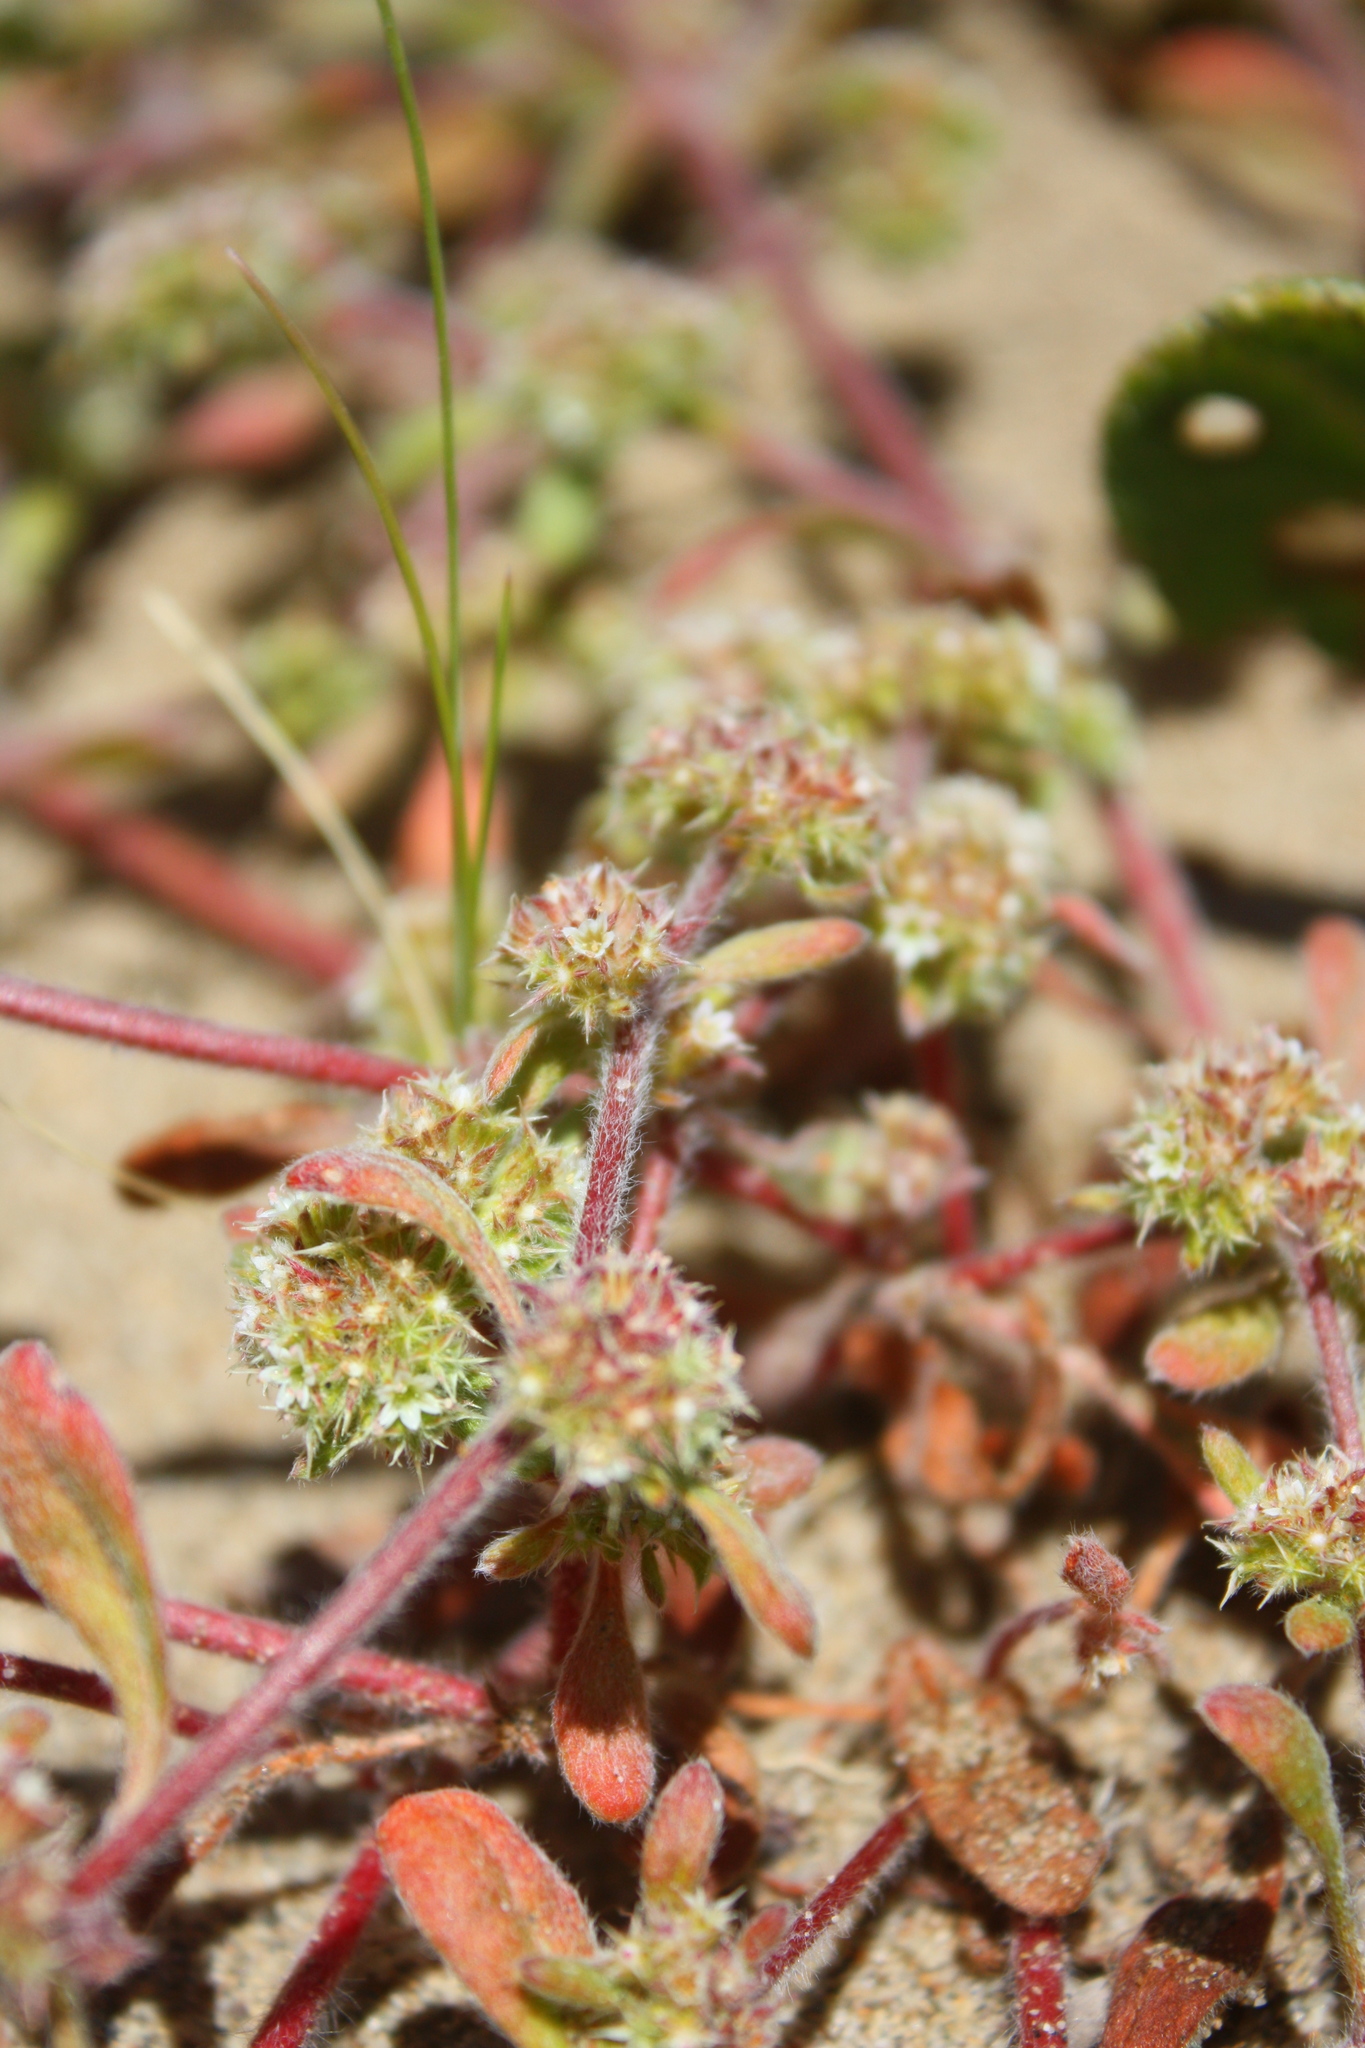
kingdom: Plantae
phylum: Tracheophyta
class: Magnoliopsida
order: Caryophyllales
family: Polygonaceae
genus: Chorizanthe
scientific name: Chorizanthe cuspidata
